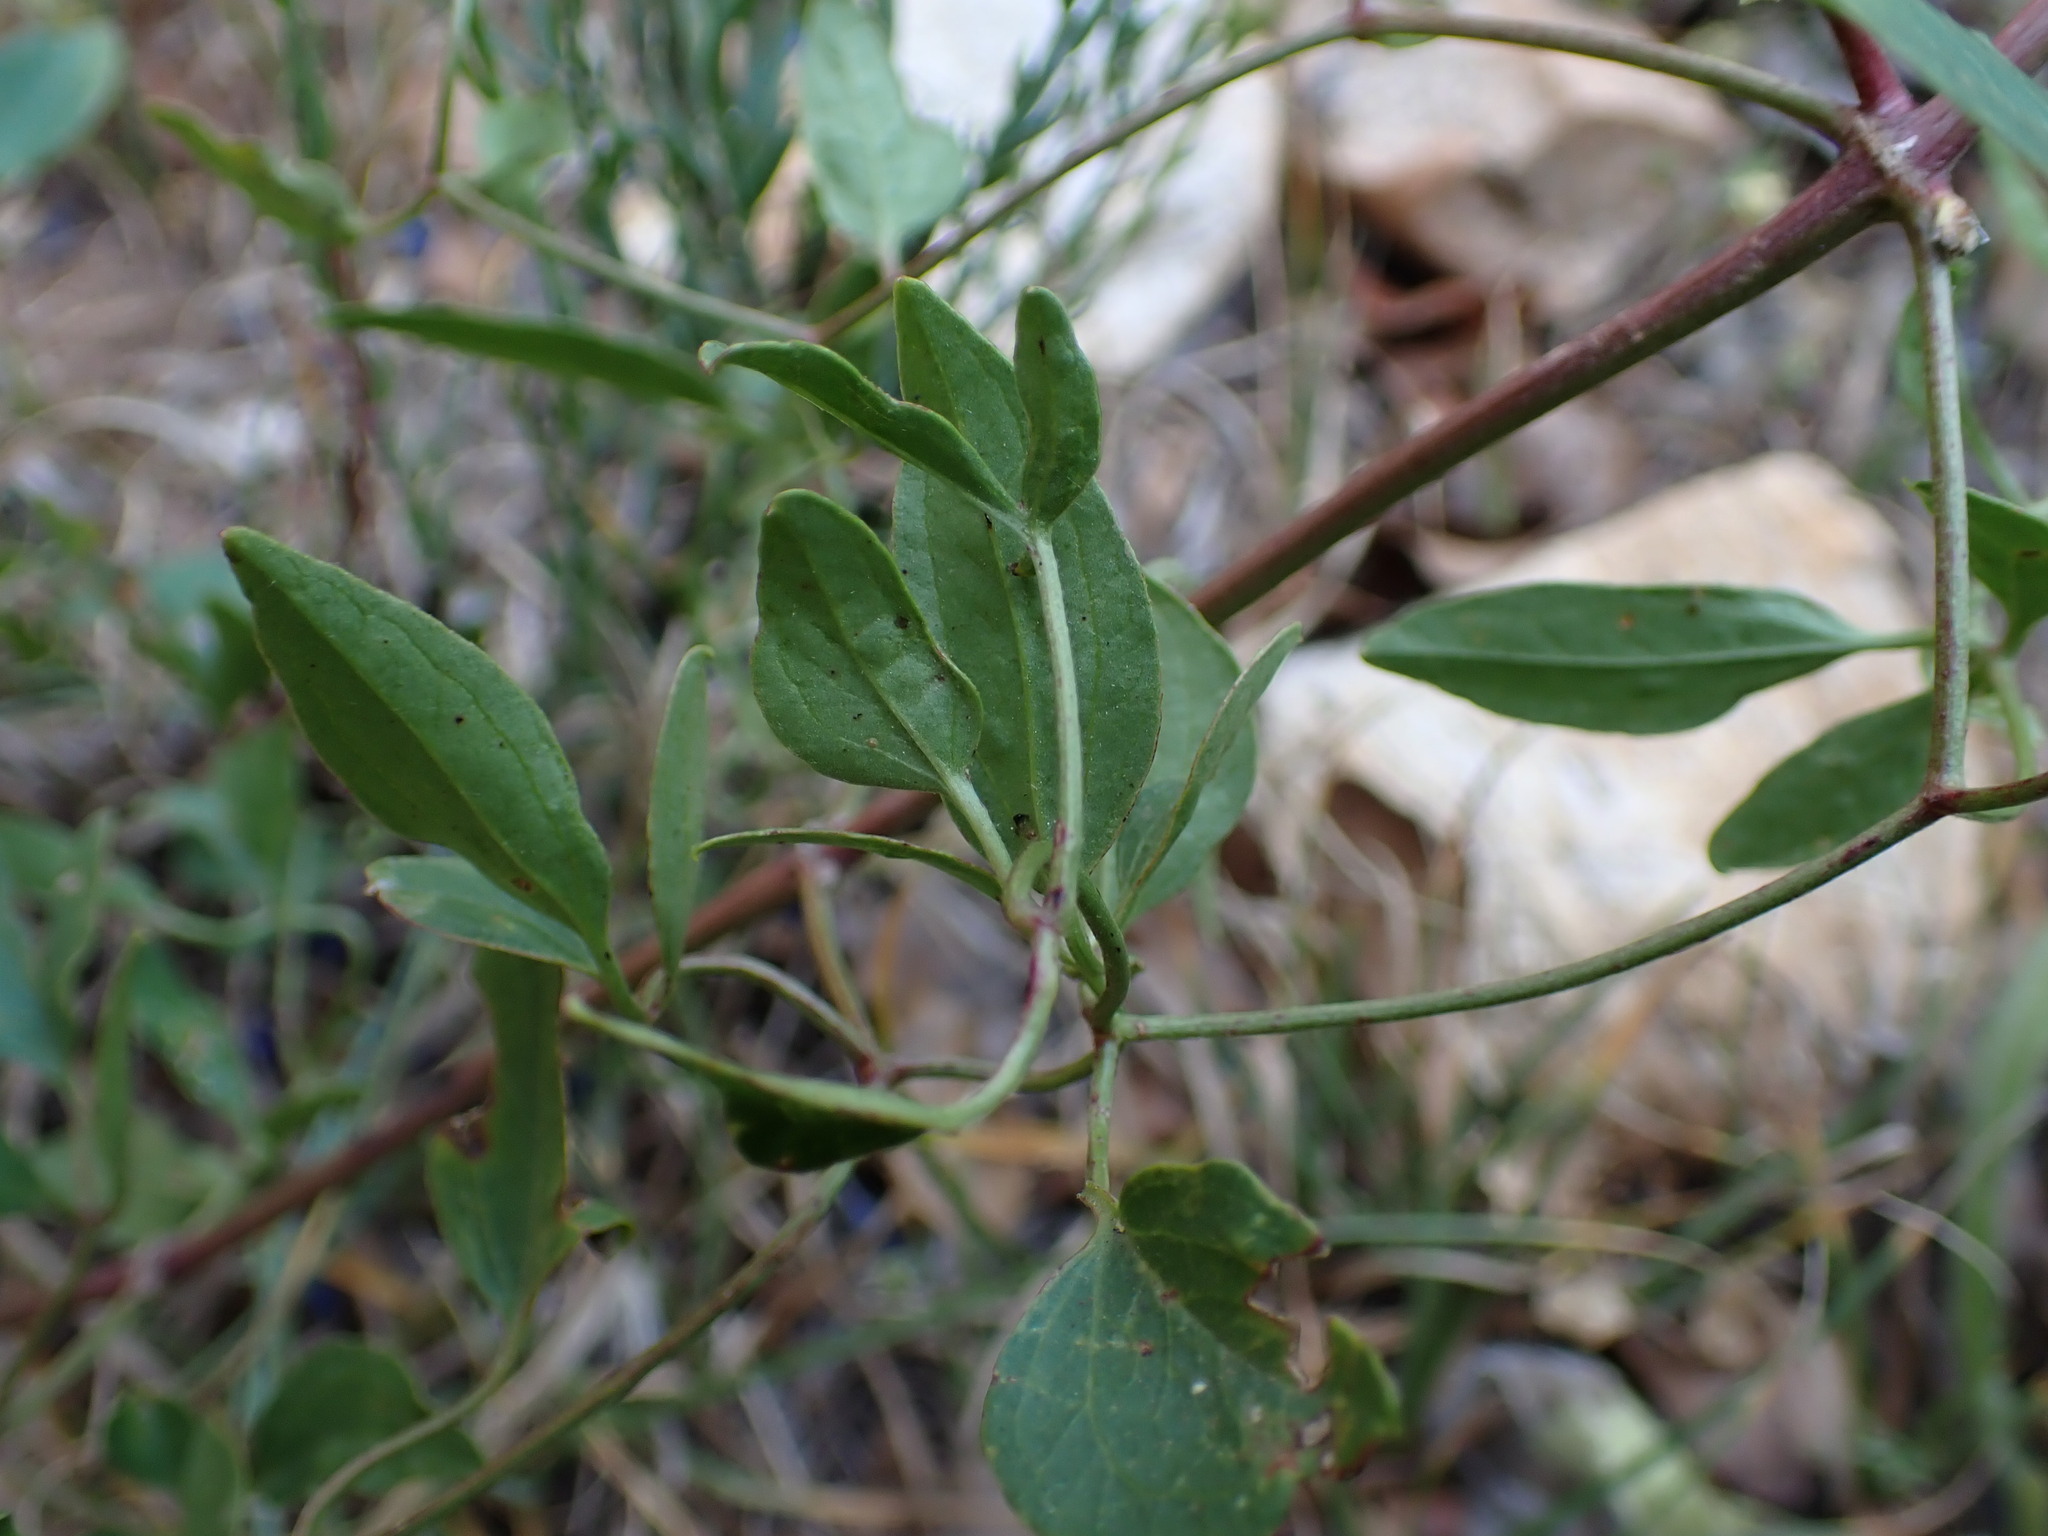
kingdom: Plantae
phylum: Tracheophyta
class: Magnoliopsida
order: Ranunculales
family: Ranunculaceae
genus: Clematis
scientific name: Clematis flammula
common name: Virgin's-bower
